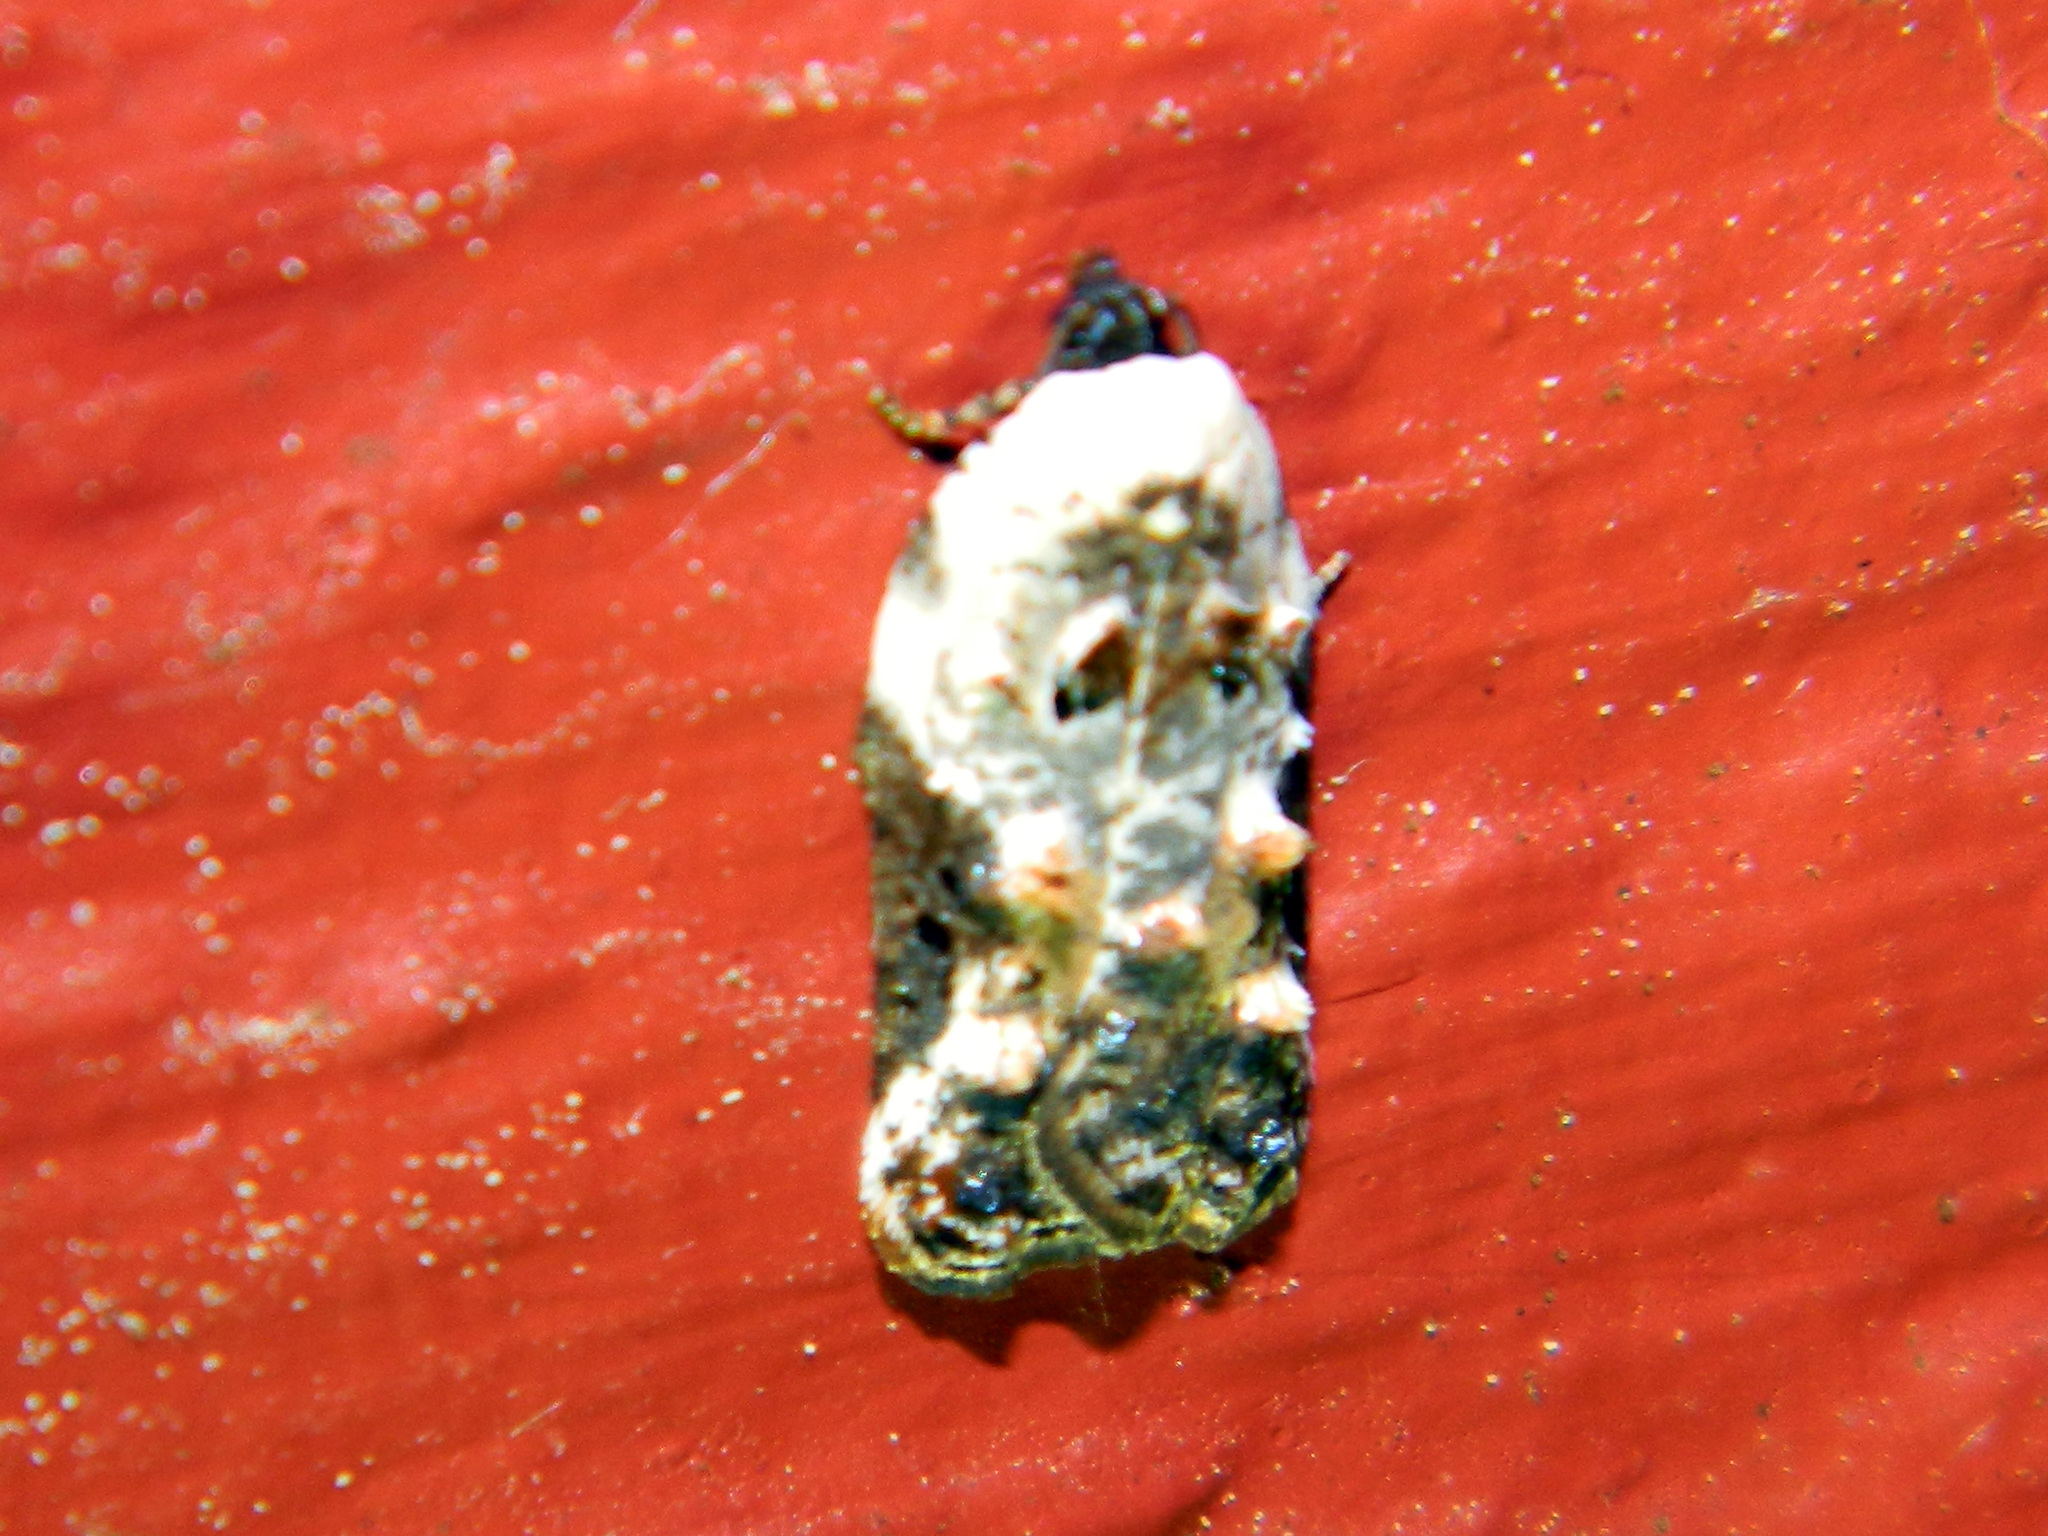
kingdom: Animalia
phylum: Arthropoda
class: Insecta
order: Lepidoptera
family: Tortricidae
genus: Acleris
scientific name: Acleris nivisellana
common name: Snowy-shouldered acleris moth
